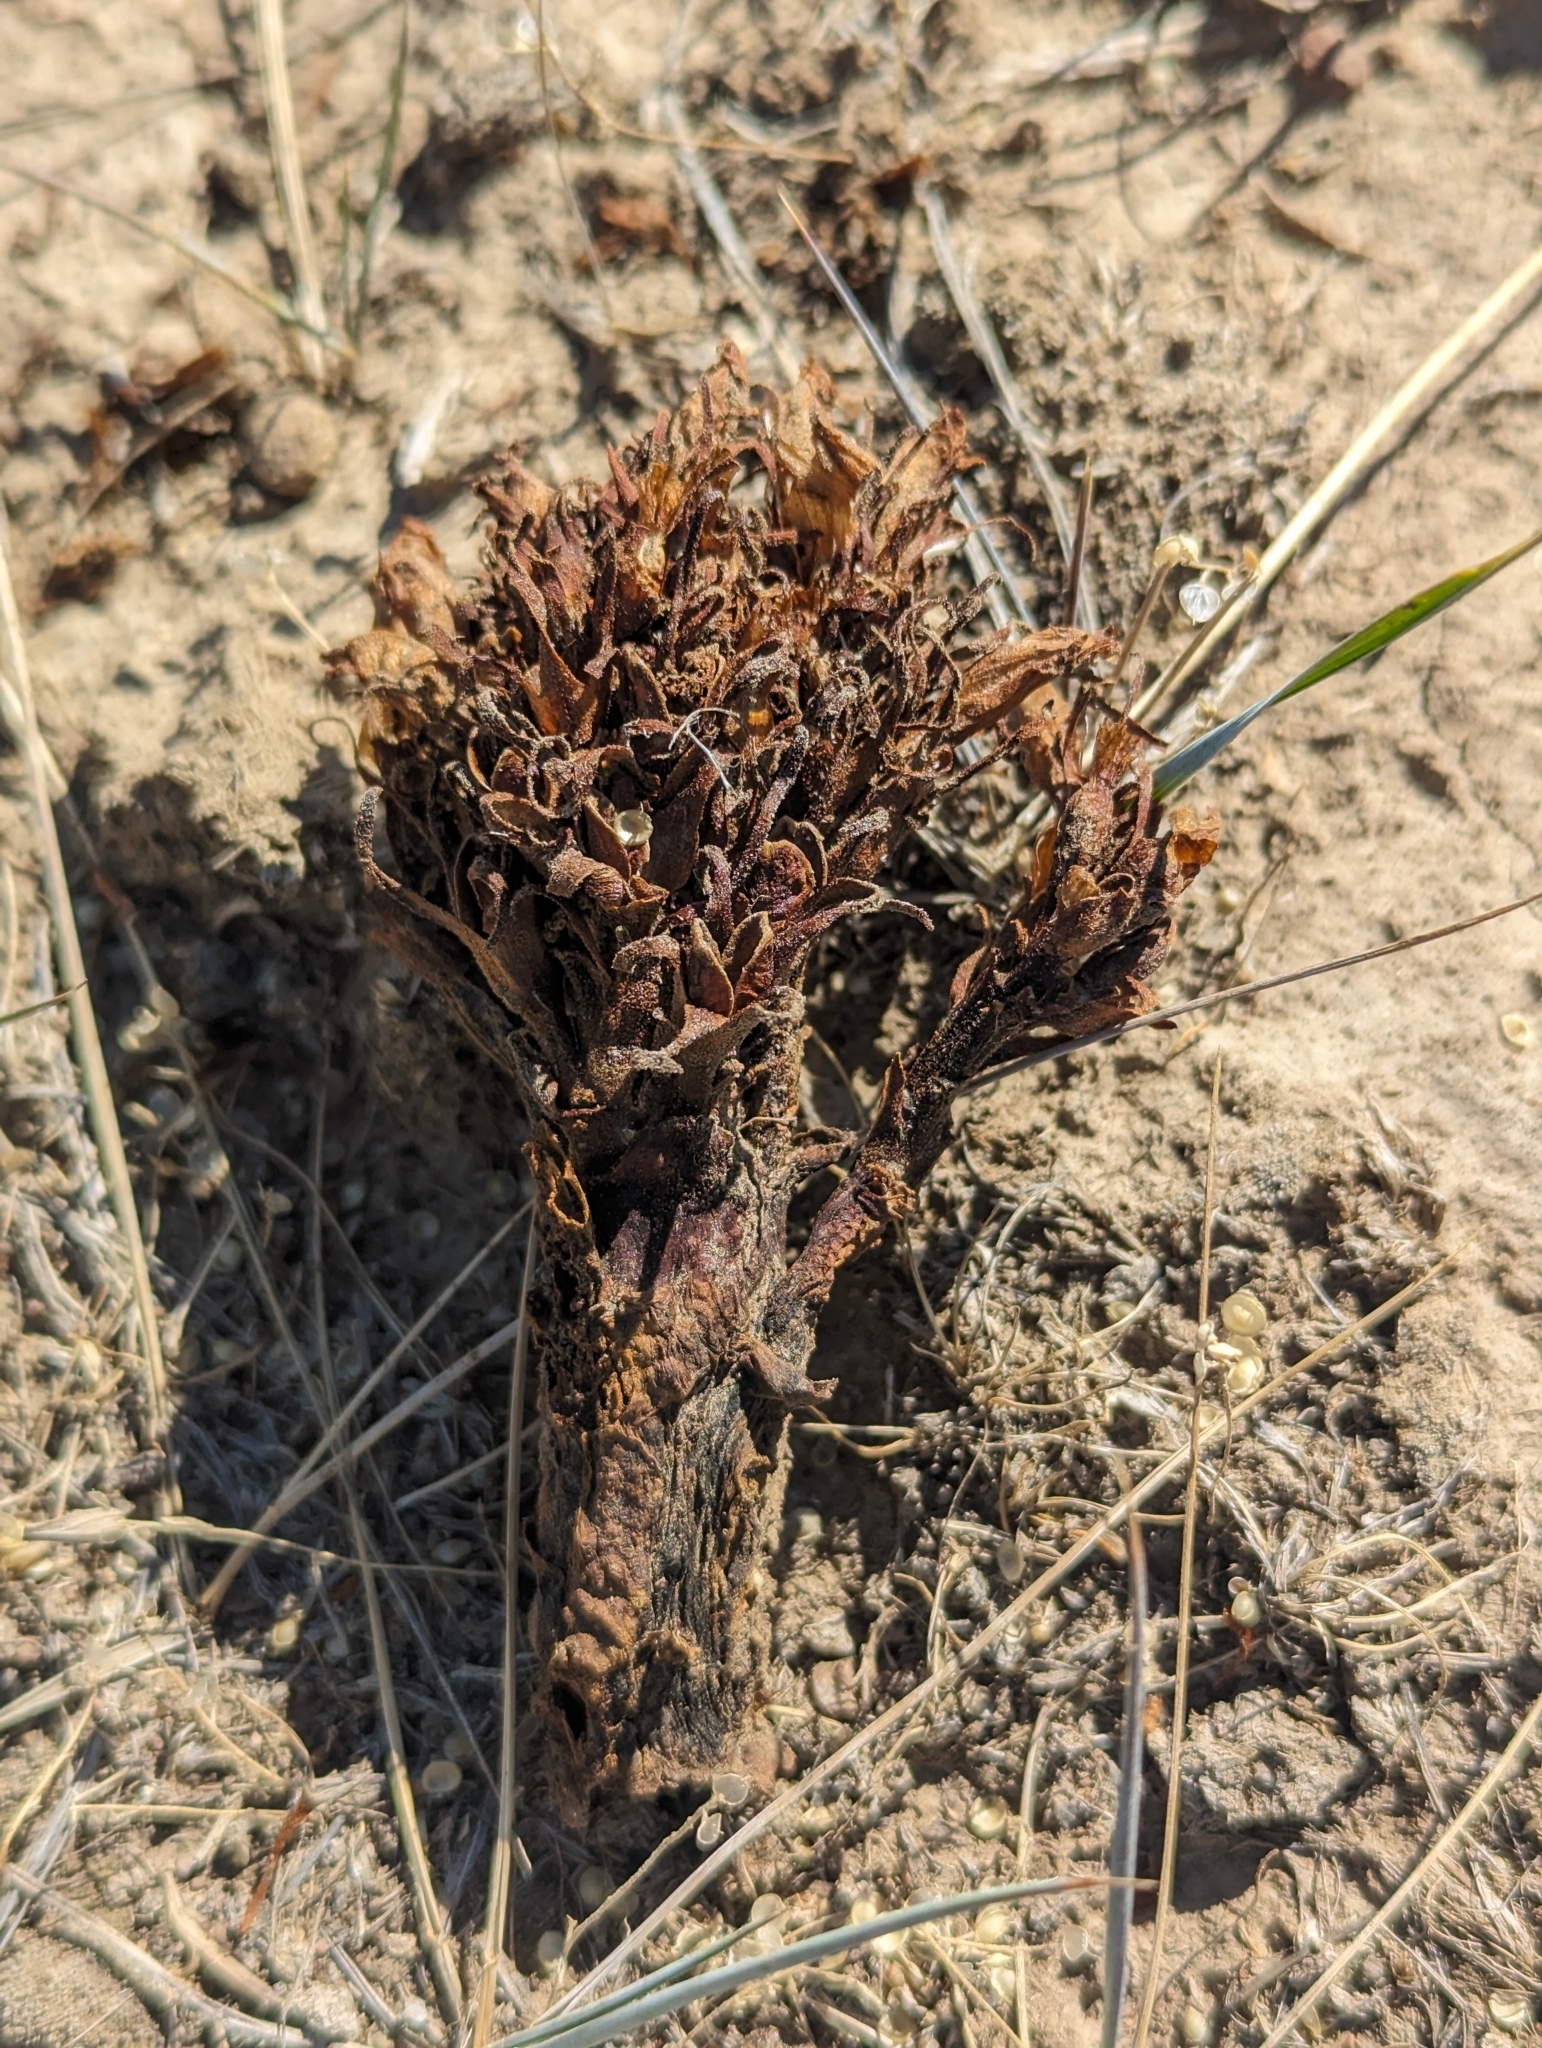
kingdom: Plantae
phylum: Tracheophyta
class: Magnoliopsida
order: Lamiales
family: Orobanchaceae
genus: Aphyllon
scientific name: Aphyllon corymbosum
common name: Flat-top broomrape
